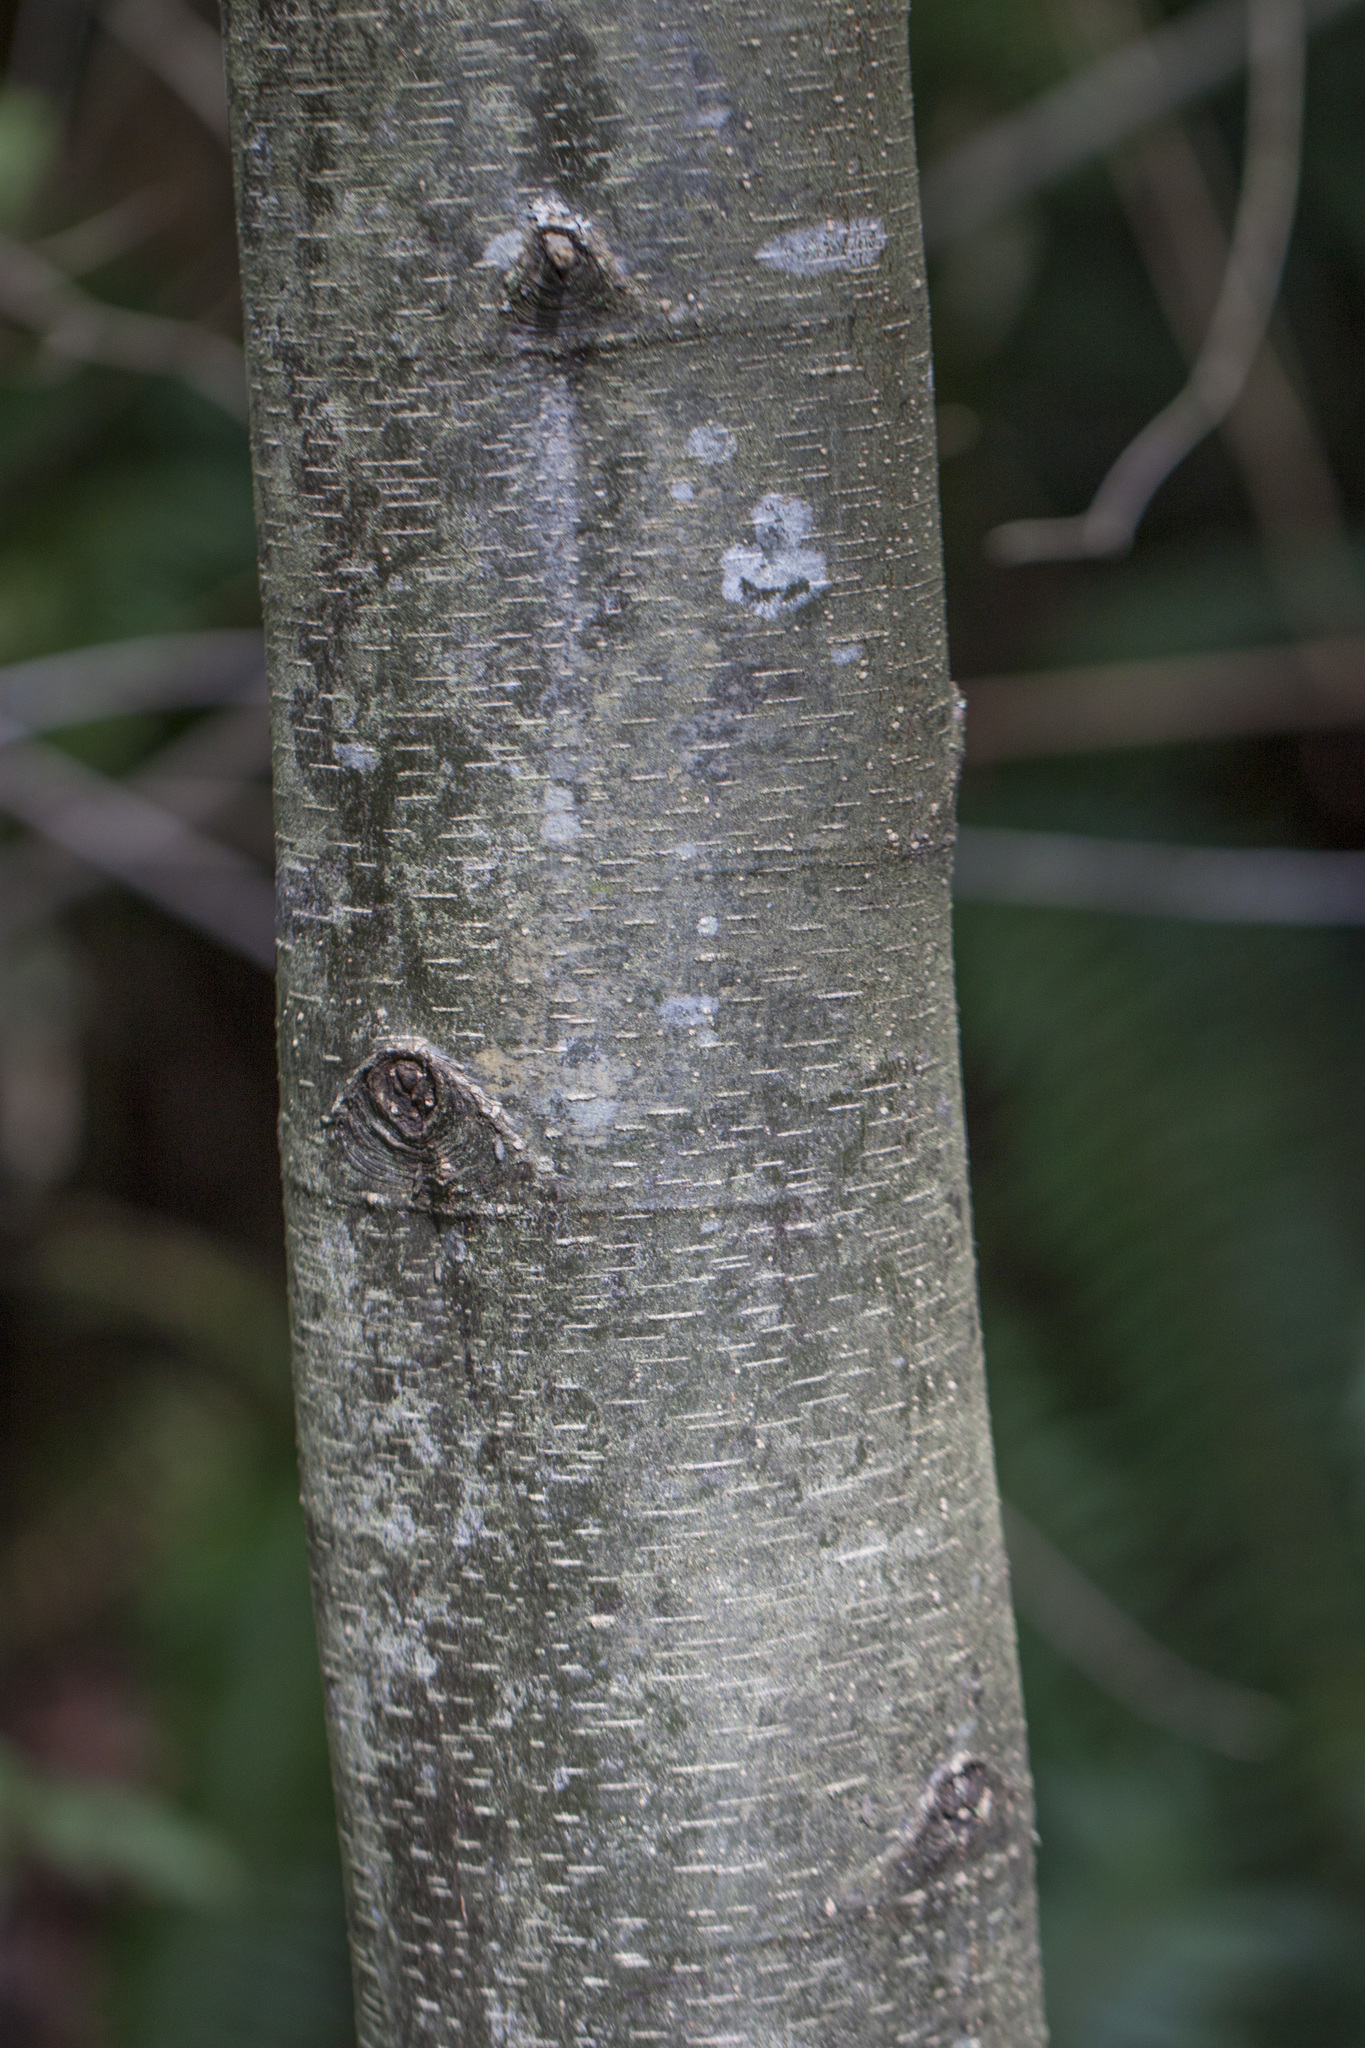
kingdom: Plantae
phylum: Tracheophyta
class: Magnoliopsida
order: Fagales
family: Betulaceae
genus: Alnus
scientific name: Alnus rubra
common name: Red alder
